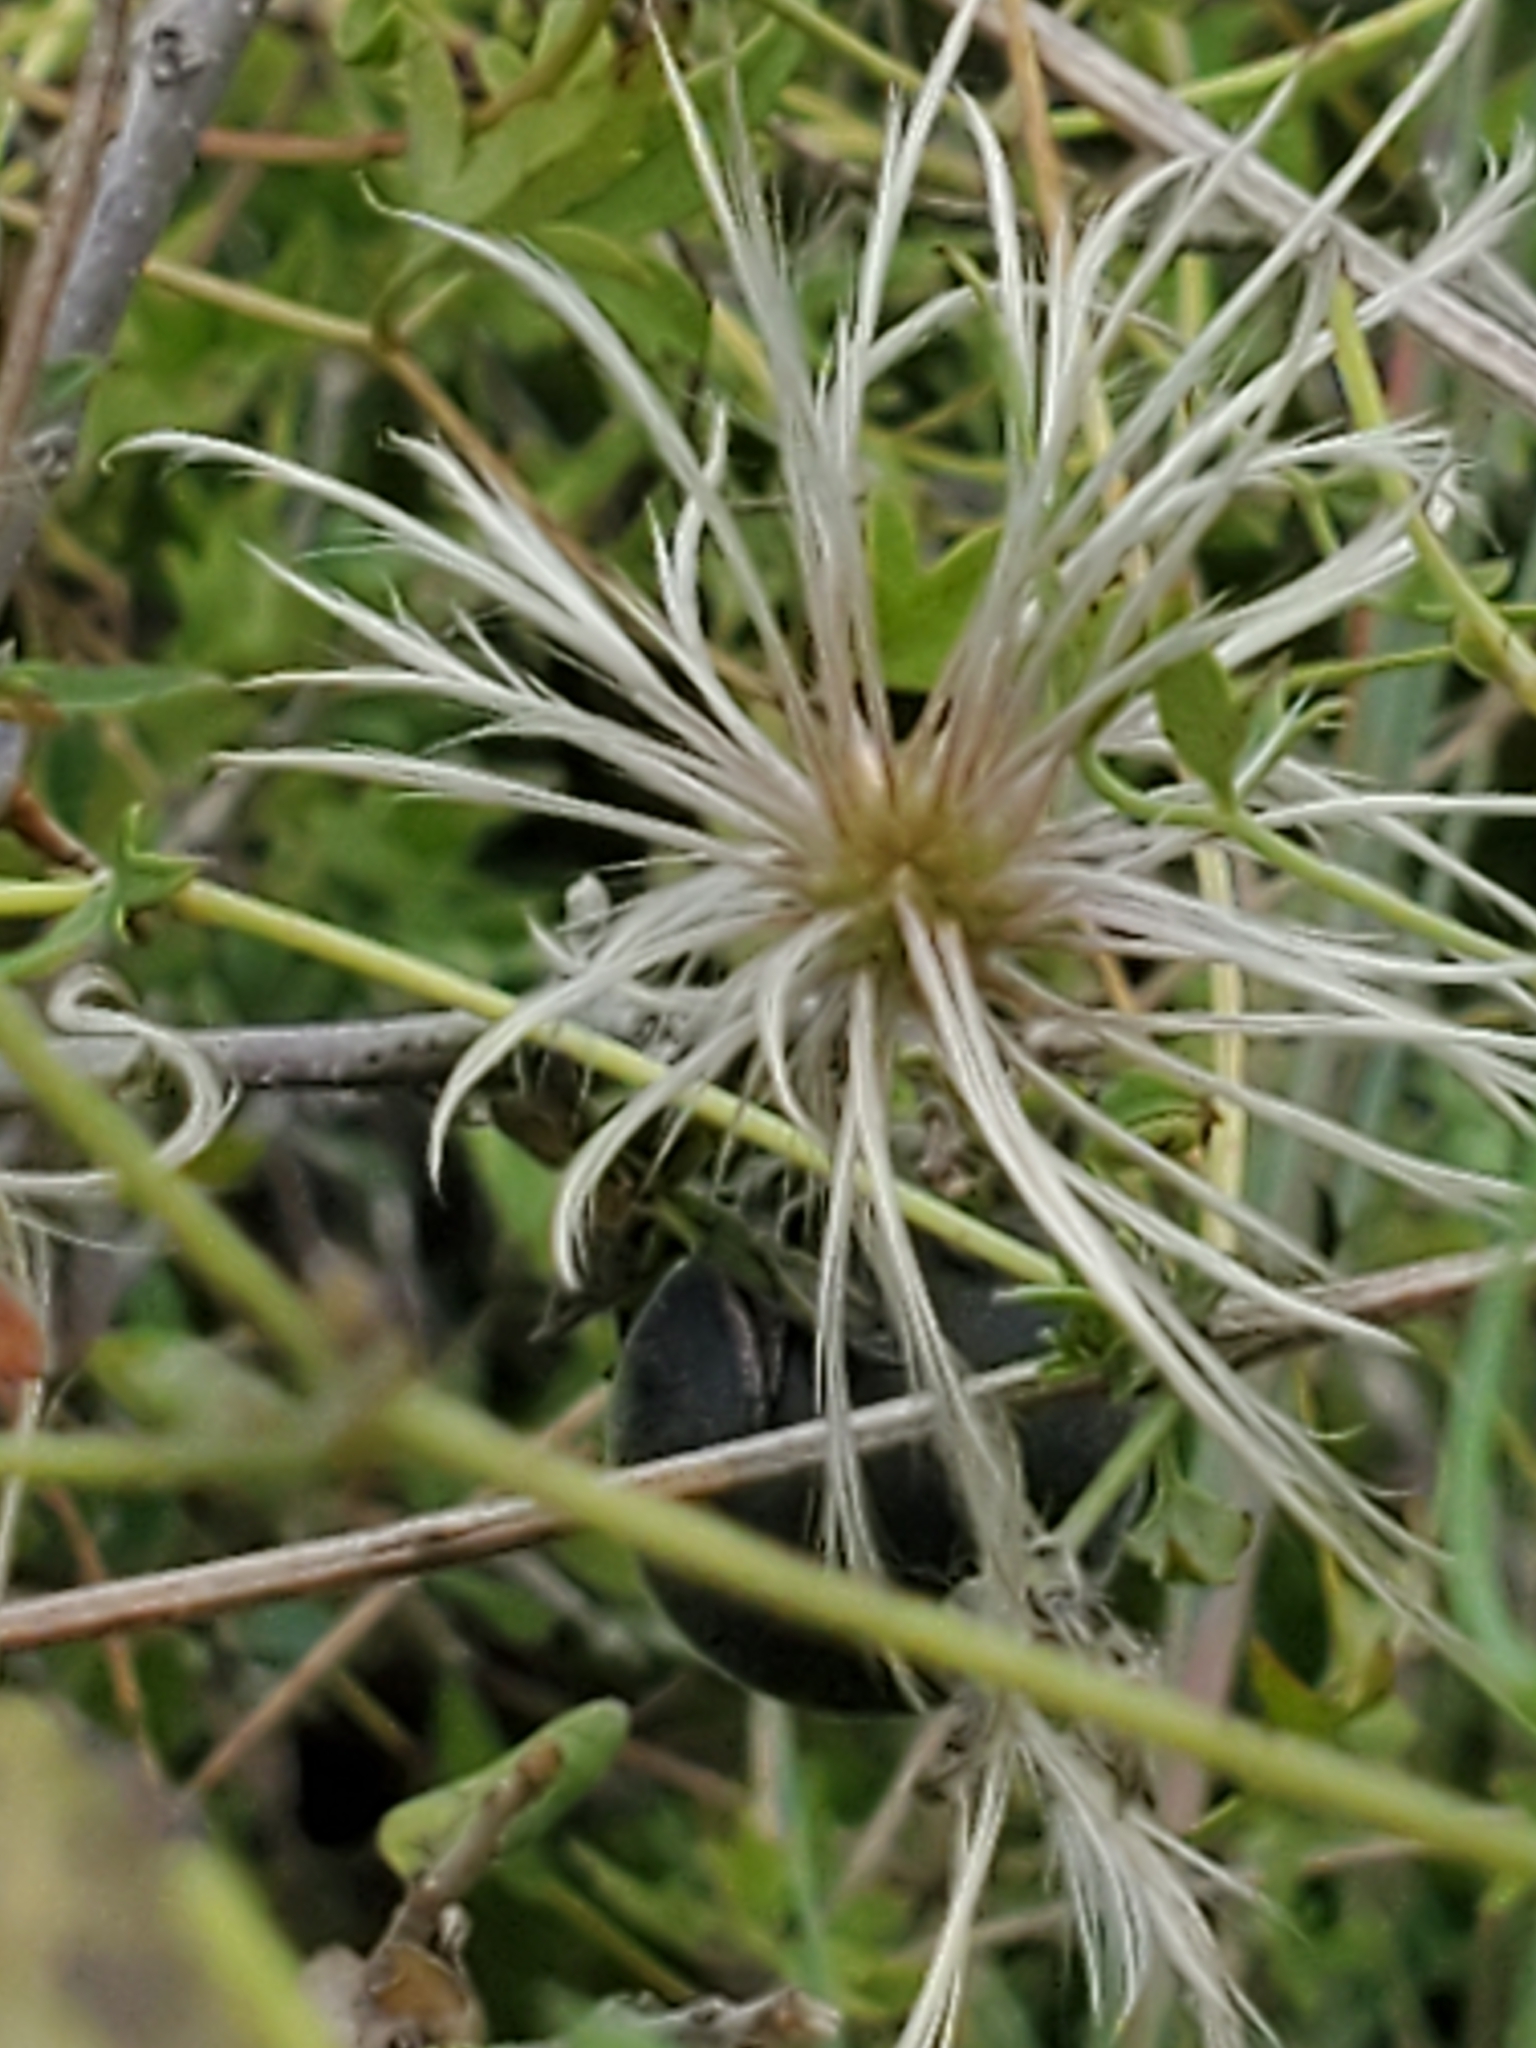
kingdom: Plantae
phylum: Tracheophyta
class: Magnoliopsida
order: Ranunculales
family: Ranunculaceae
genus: Clematis
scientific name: Clematis drummondii
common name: Texas virgin's bower
